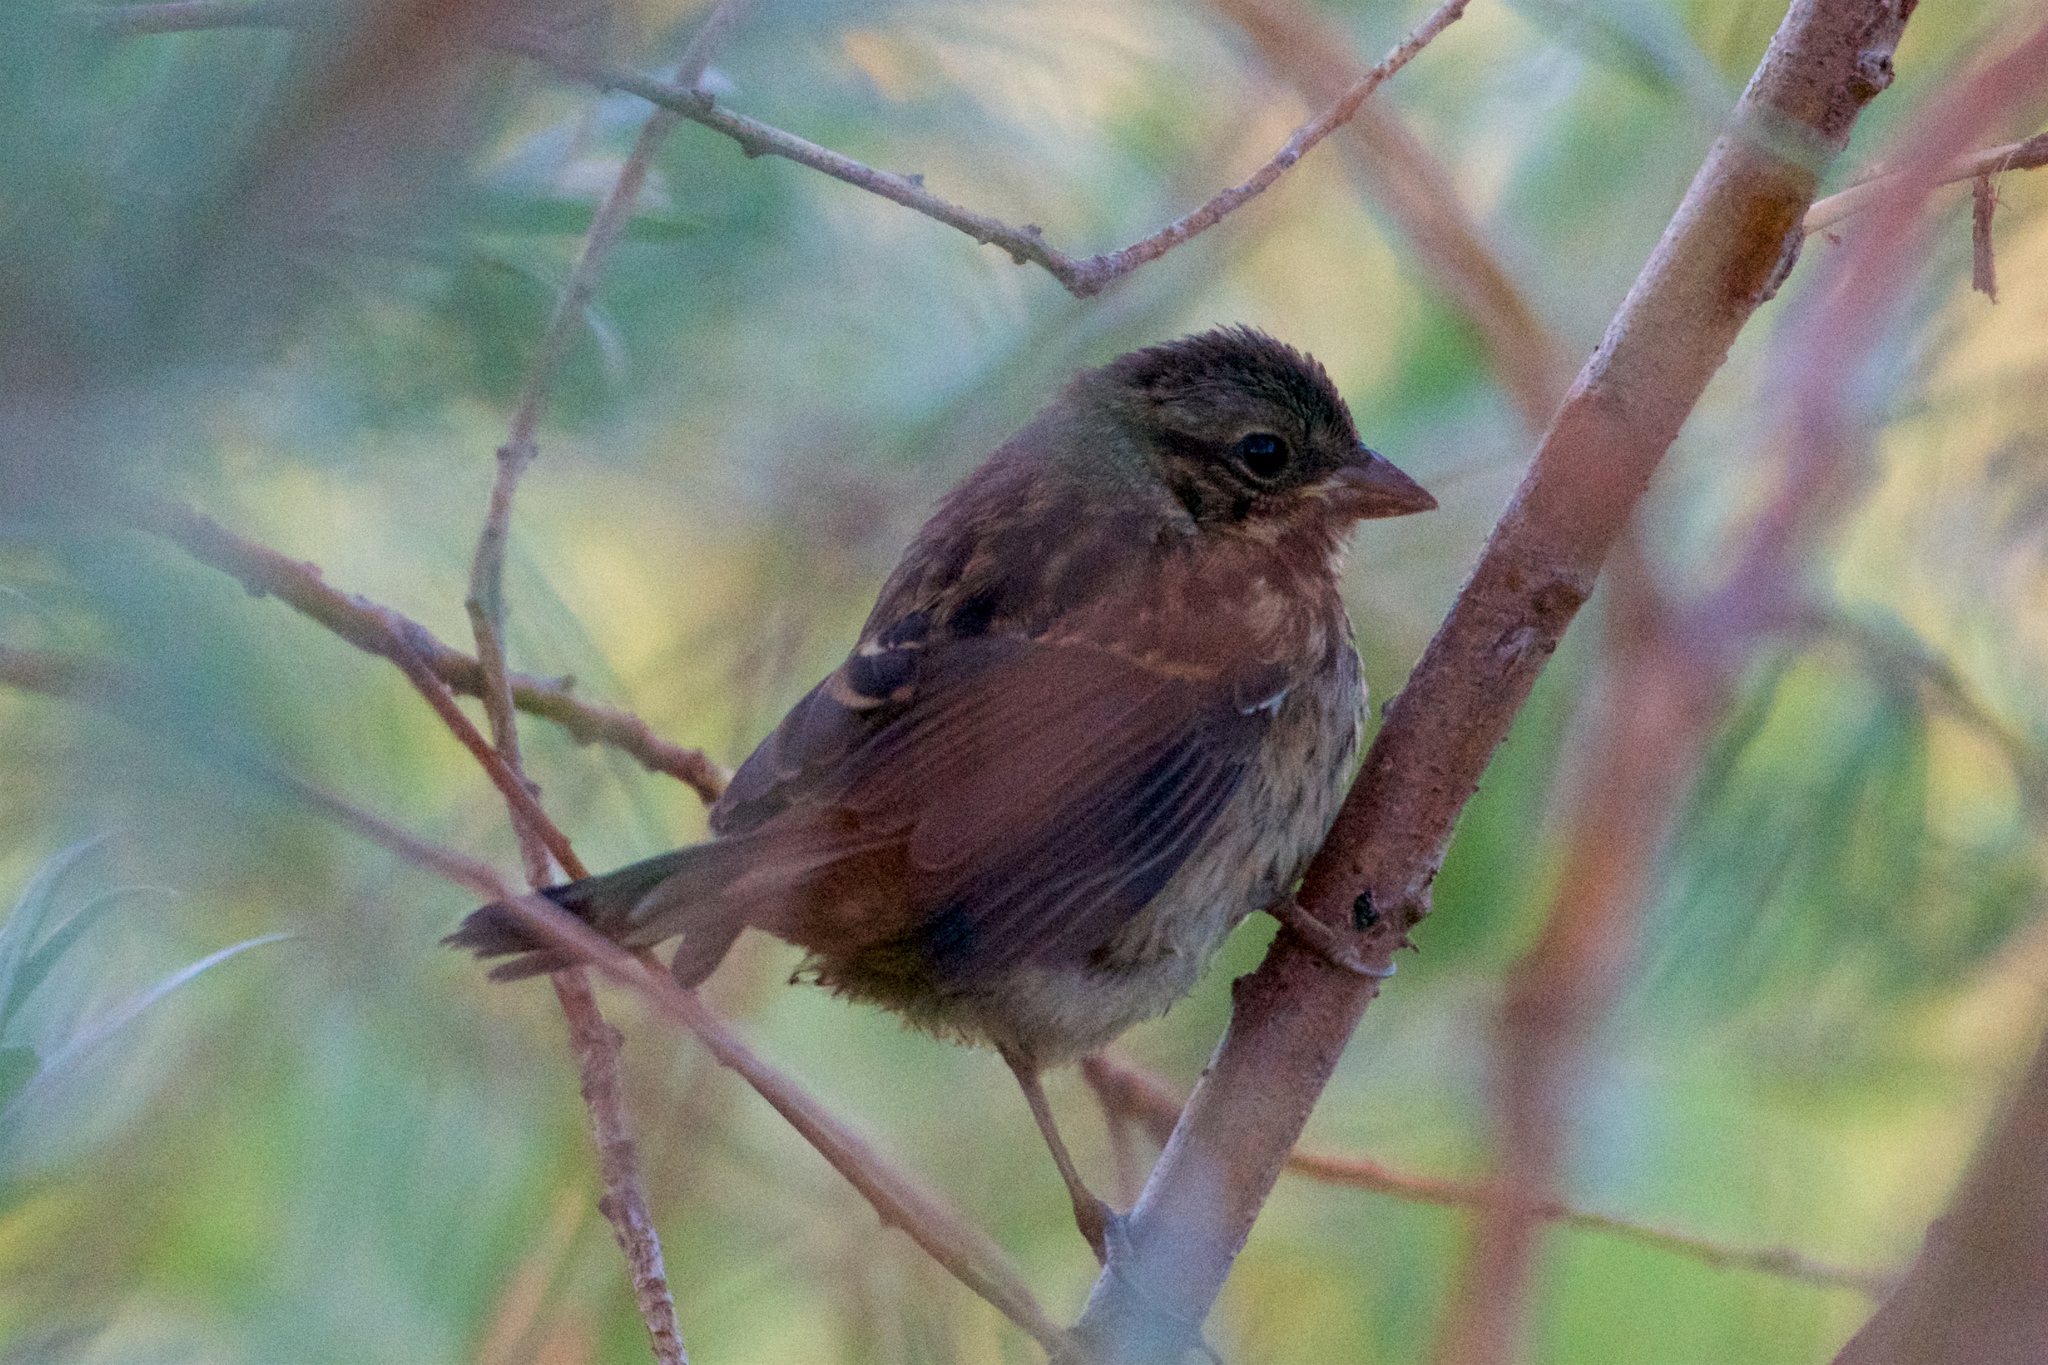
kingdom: Animalia
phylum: Chordata
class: Aves
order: Passeriformes
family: Passerellidae
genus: Melospiza
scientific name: Melospiza melodia
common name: Song sparrow
